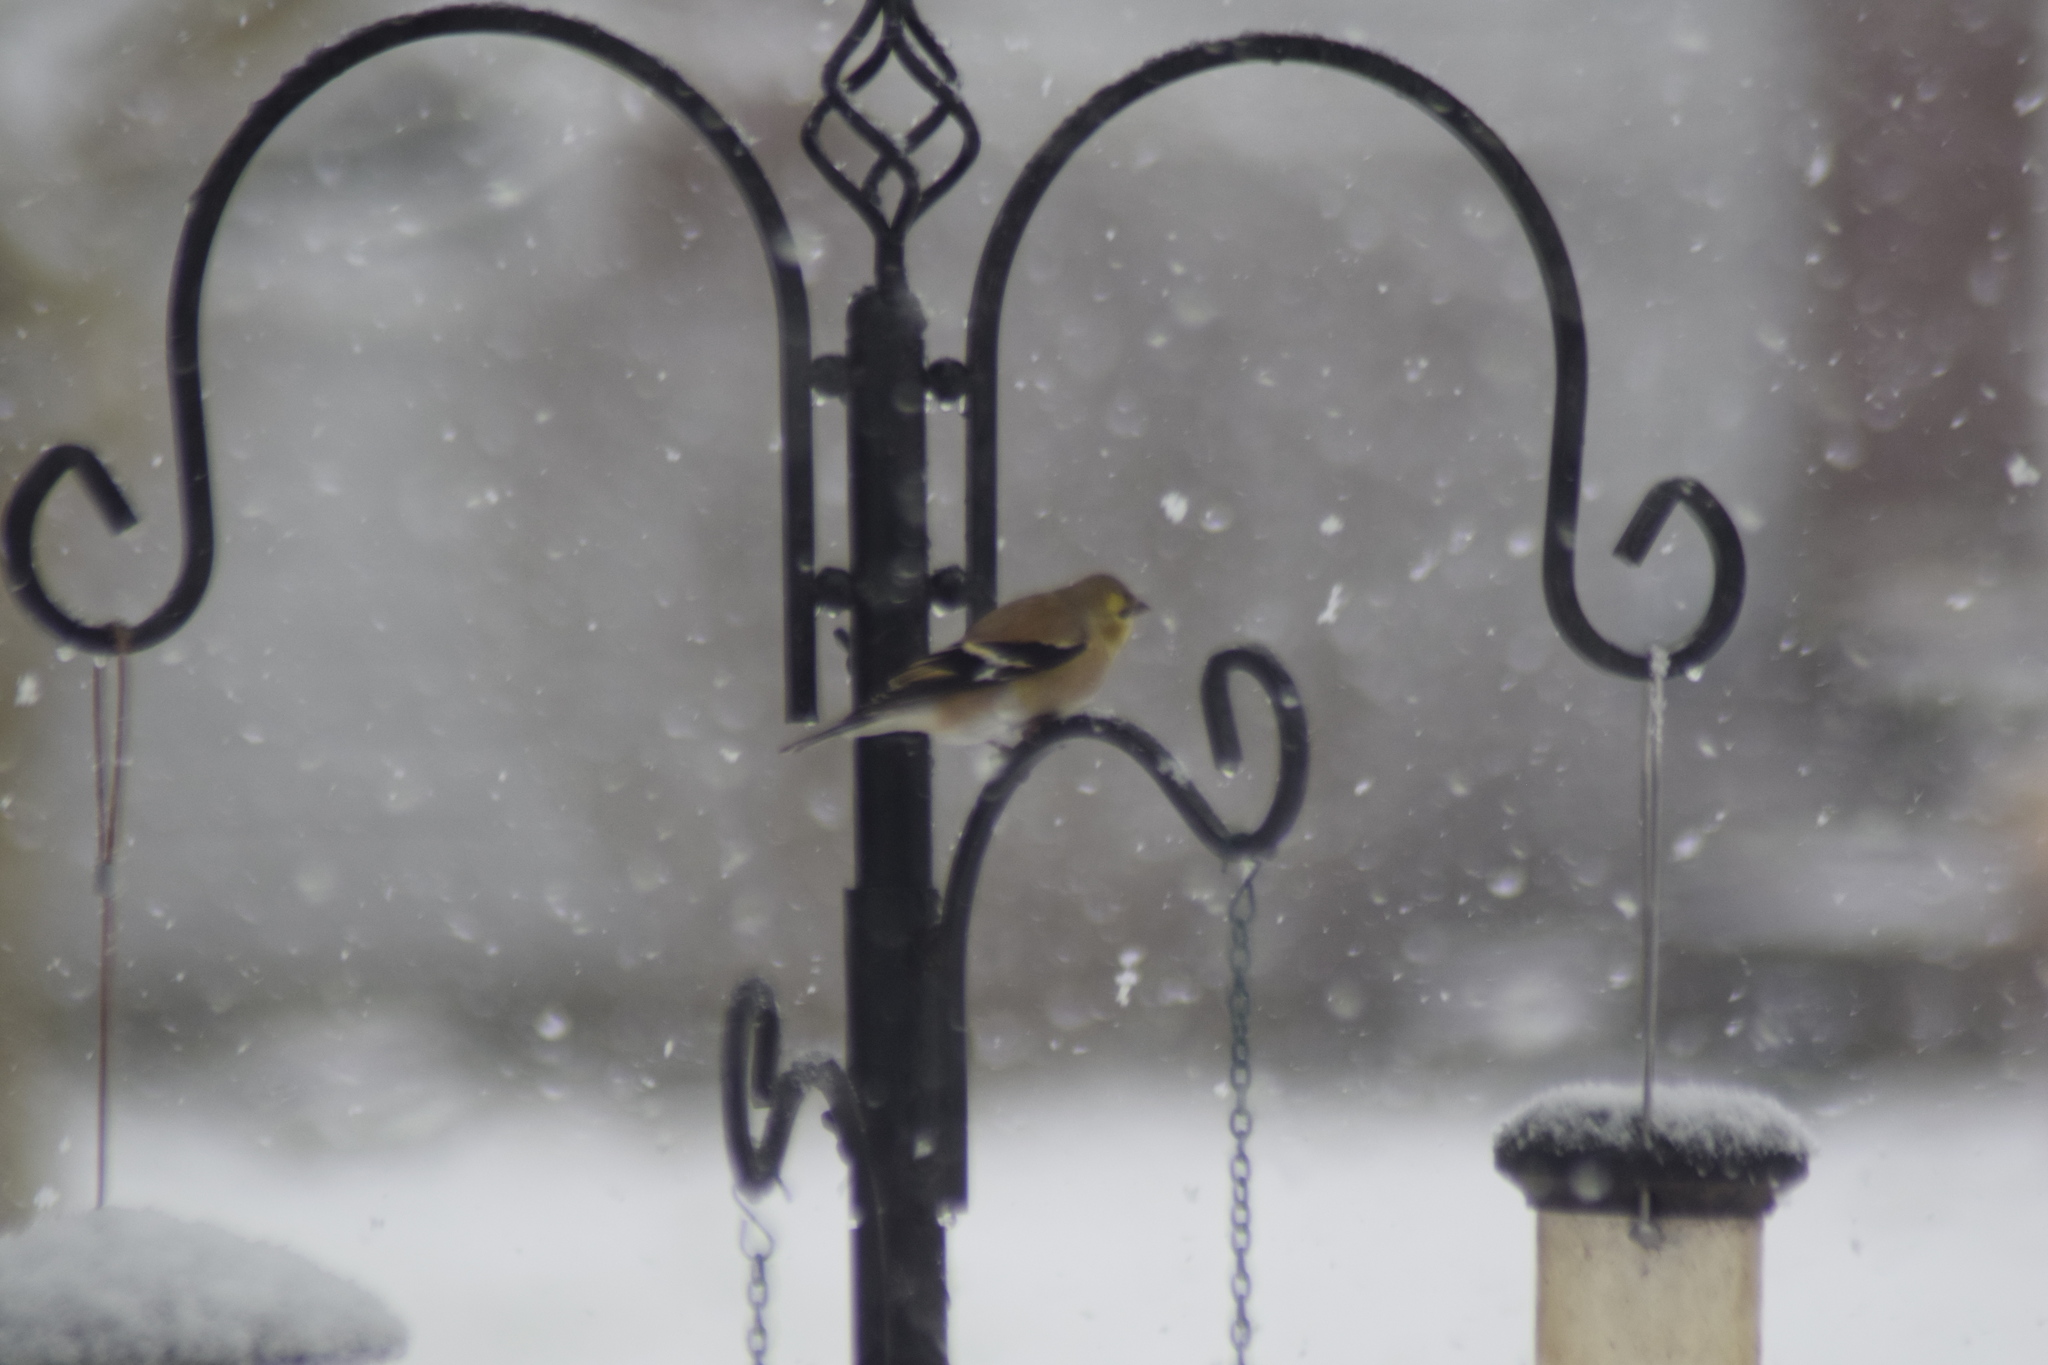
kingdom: Animalia
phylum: Chordata
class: Aves
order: Passeriformes
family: Fringillidae
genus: Spinus
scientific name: Spinus tristis
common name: American goldfinch
